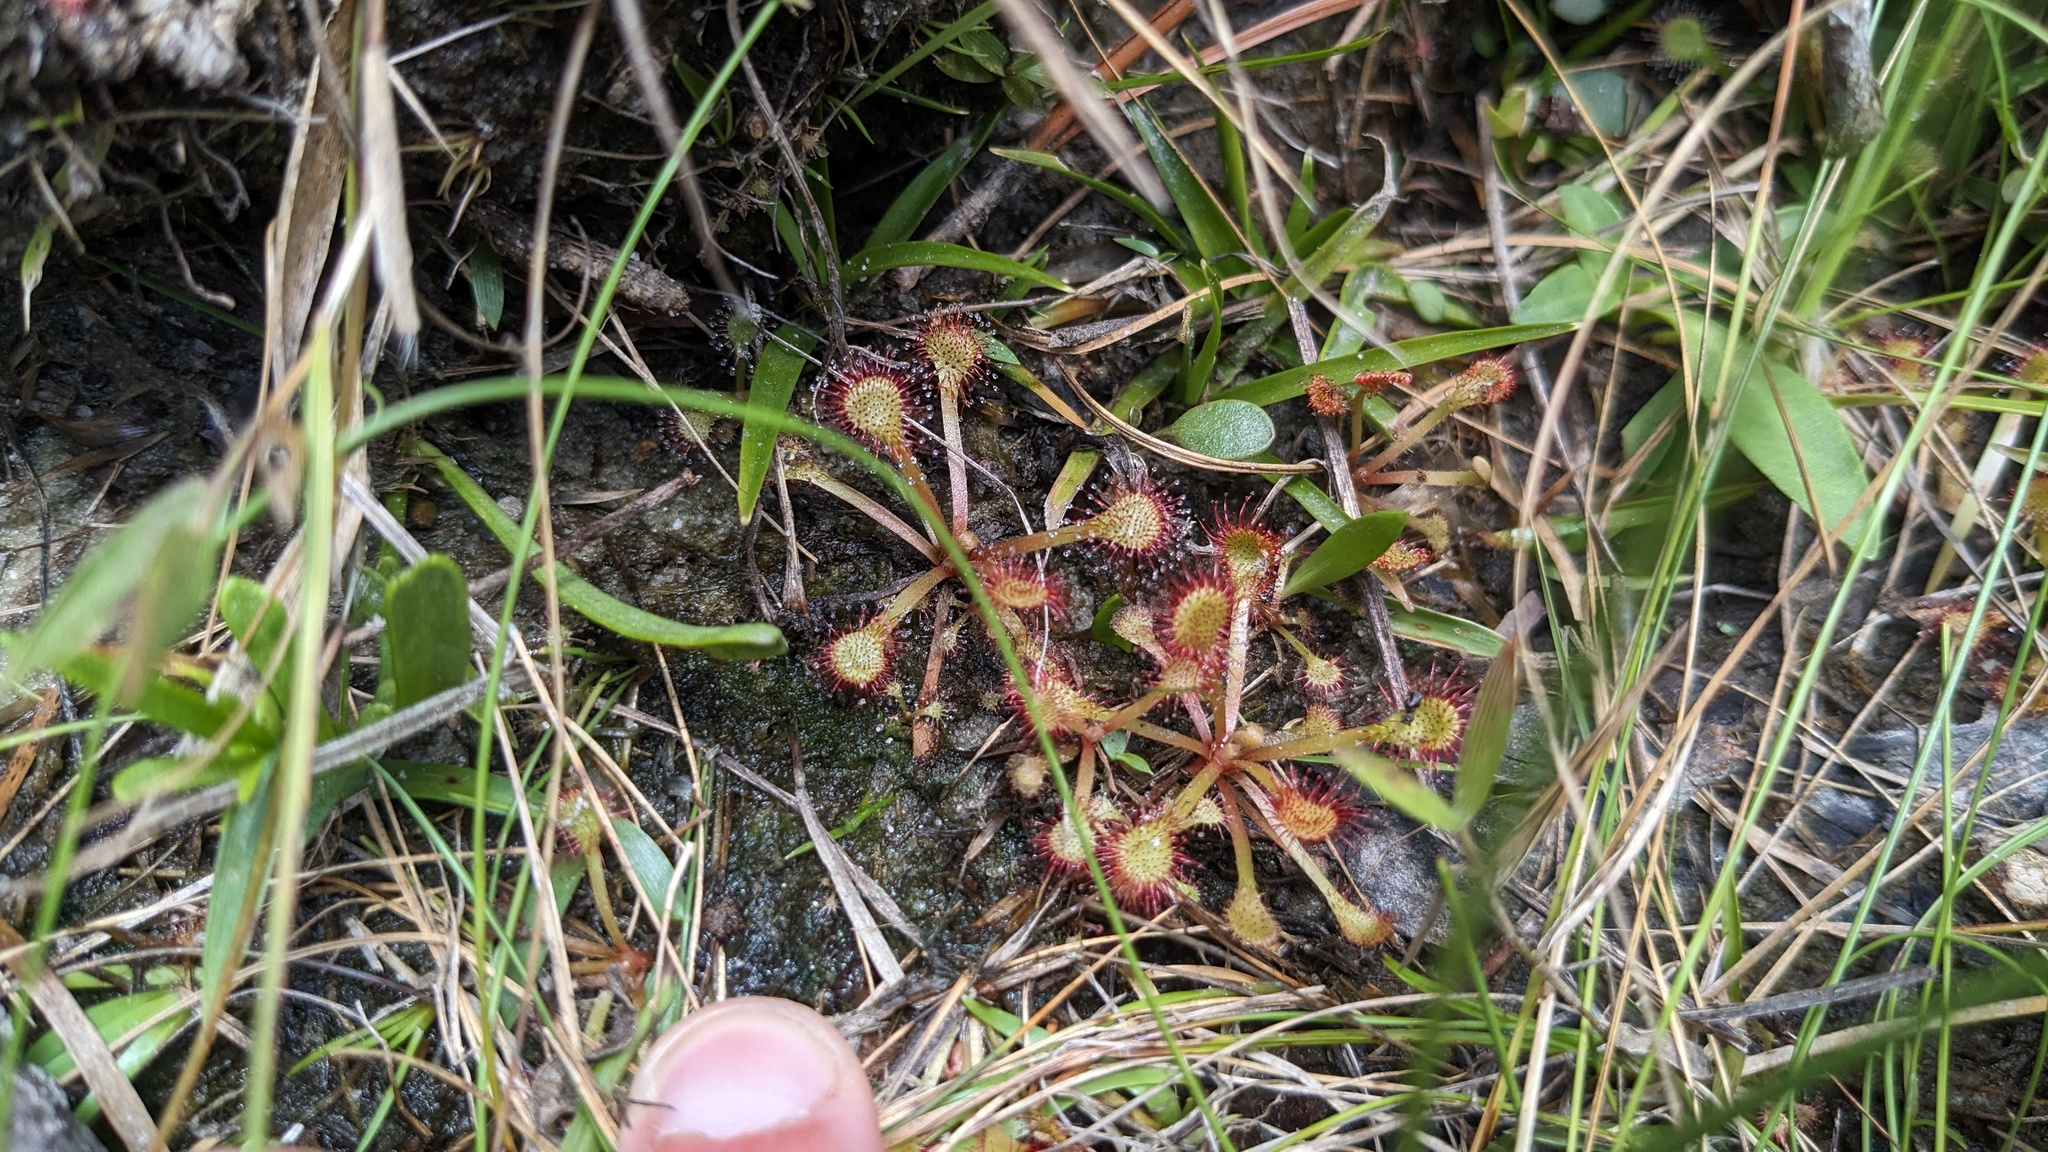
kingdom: Plantae
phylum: Tracheophyta
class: Magnoliopsida
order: Caryophyllales
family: Droseraceae
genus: Drosera
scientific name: Drosera capillaris
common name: Pink sundew
